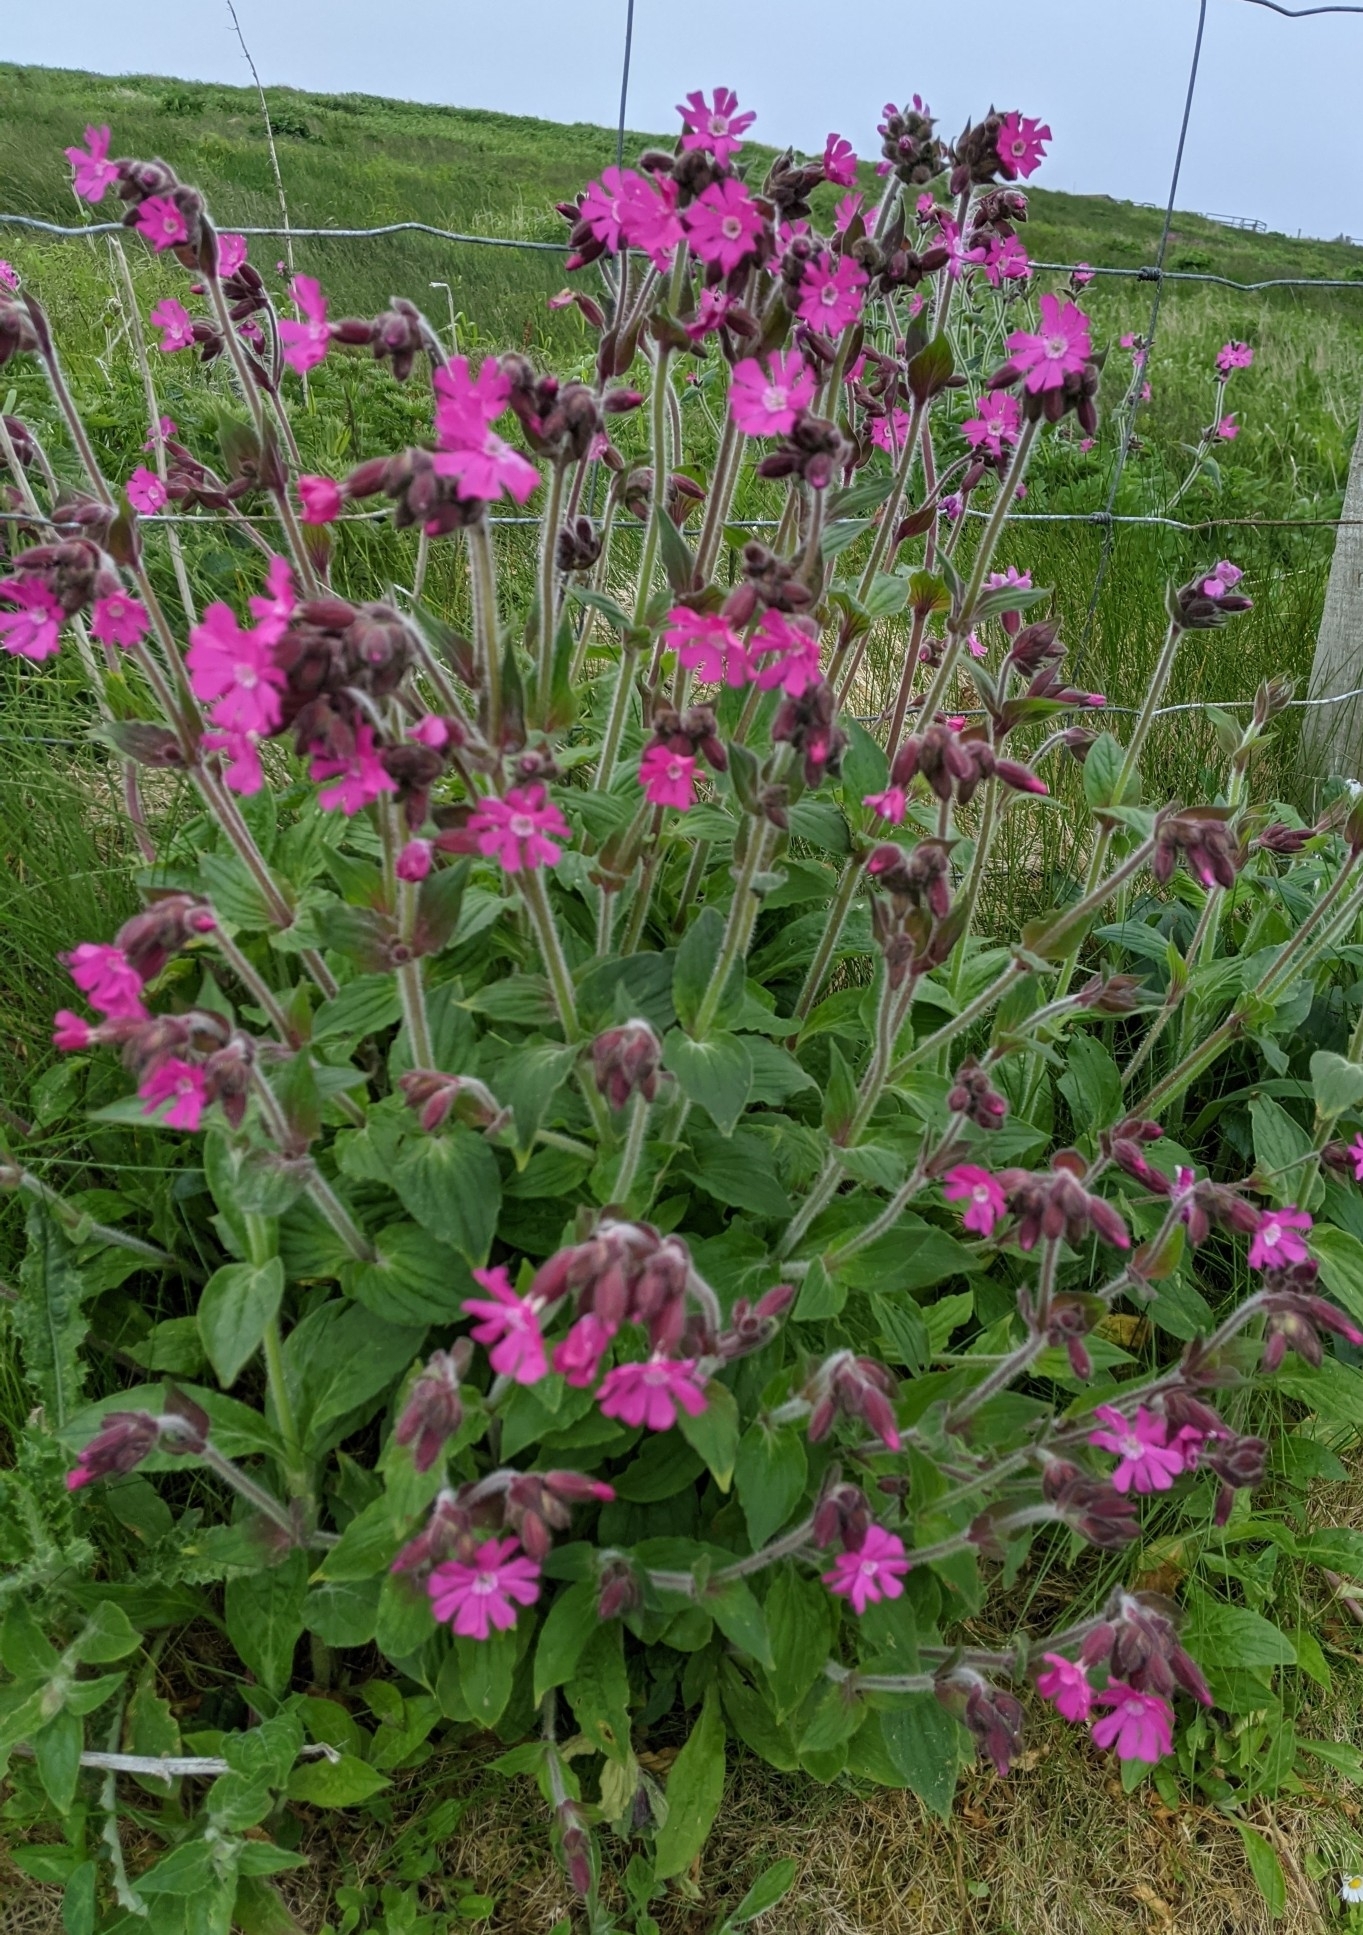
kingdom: Plantae
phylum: Tracheophyta
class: Magnoliopsida
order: Caryophyllales
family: Caryophyllaceae
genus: Silene
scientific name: Silene dioica
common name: Red campion
